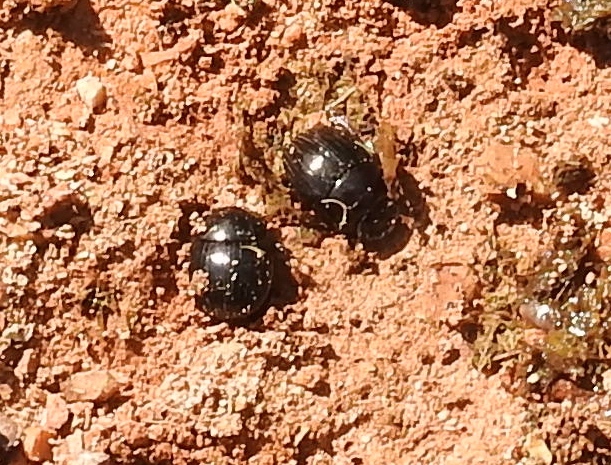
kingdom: Animalia
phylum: Arthropoda
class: Insecta
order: Coleoptera
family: Scarabaeidae
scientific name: Scarabaeidae
